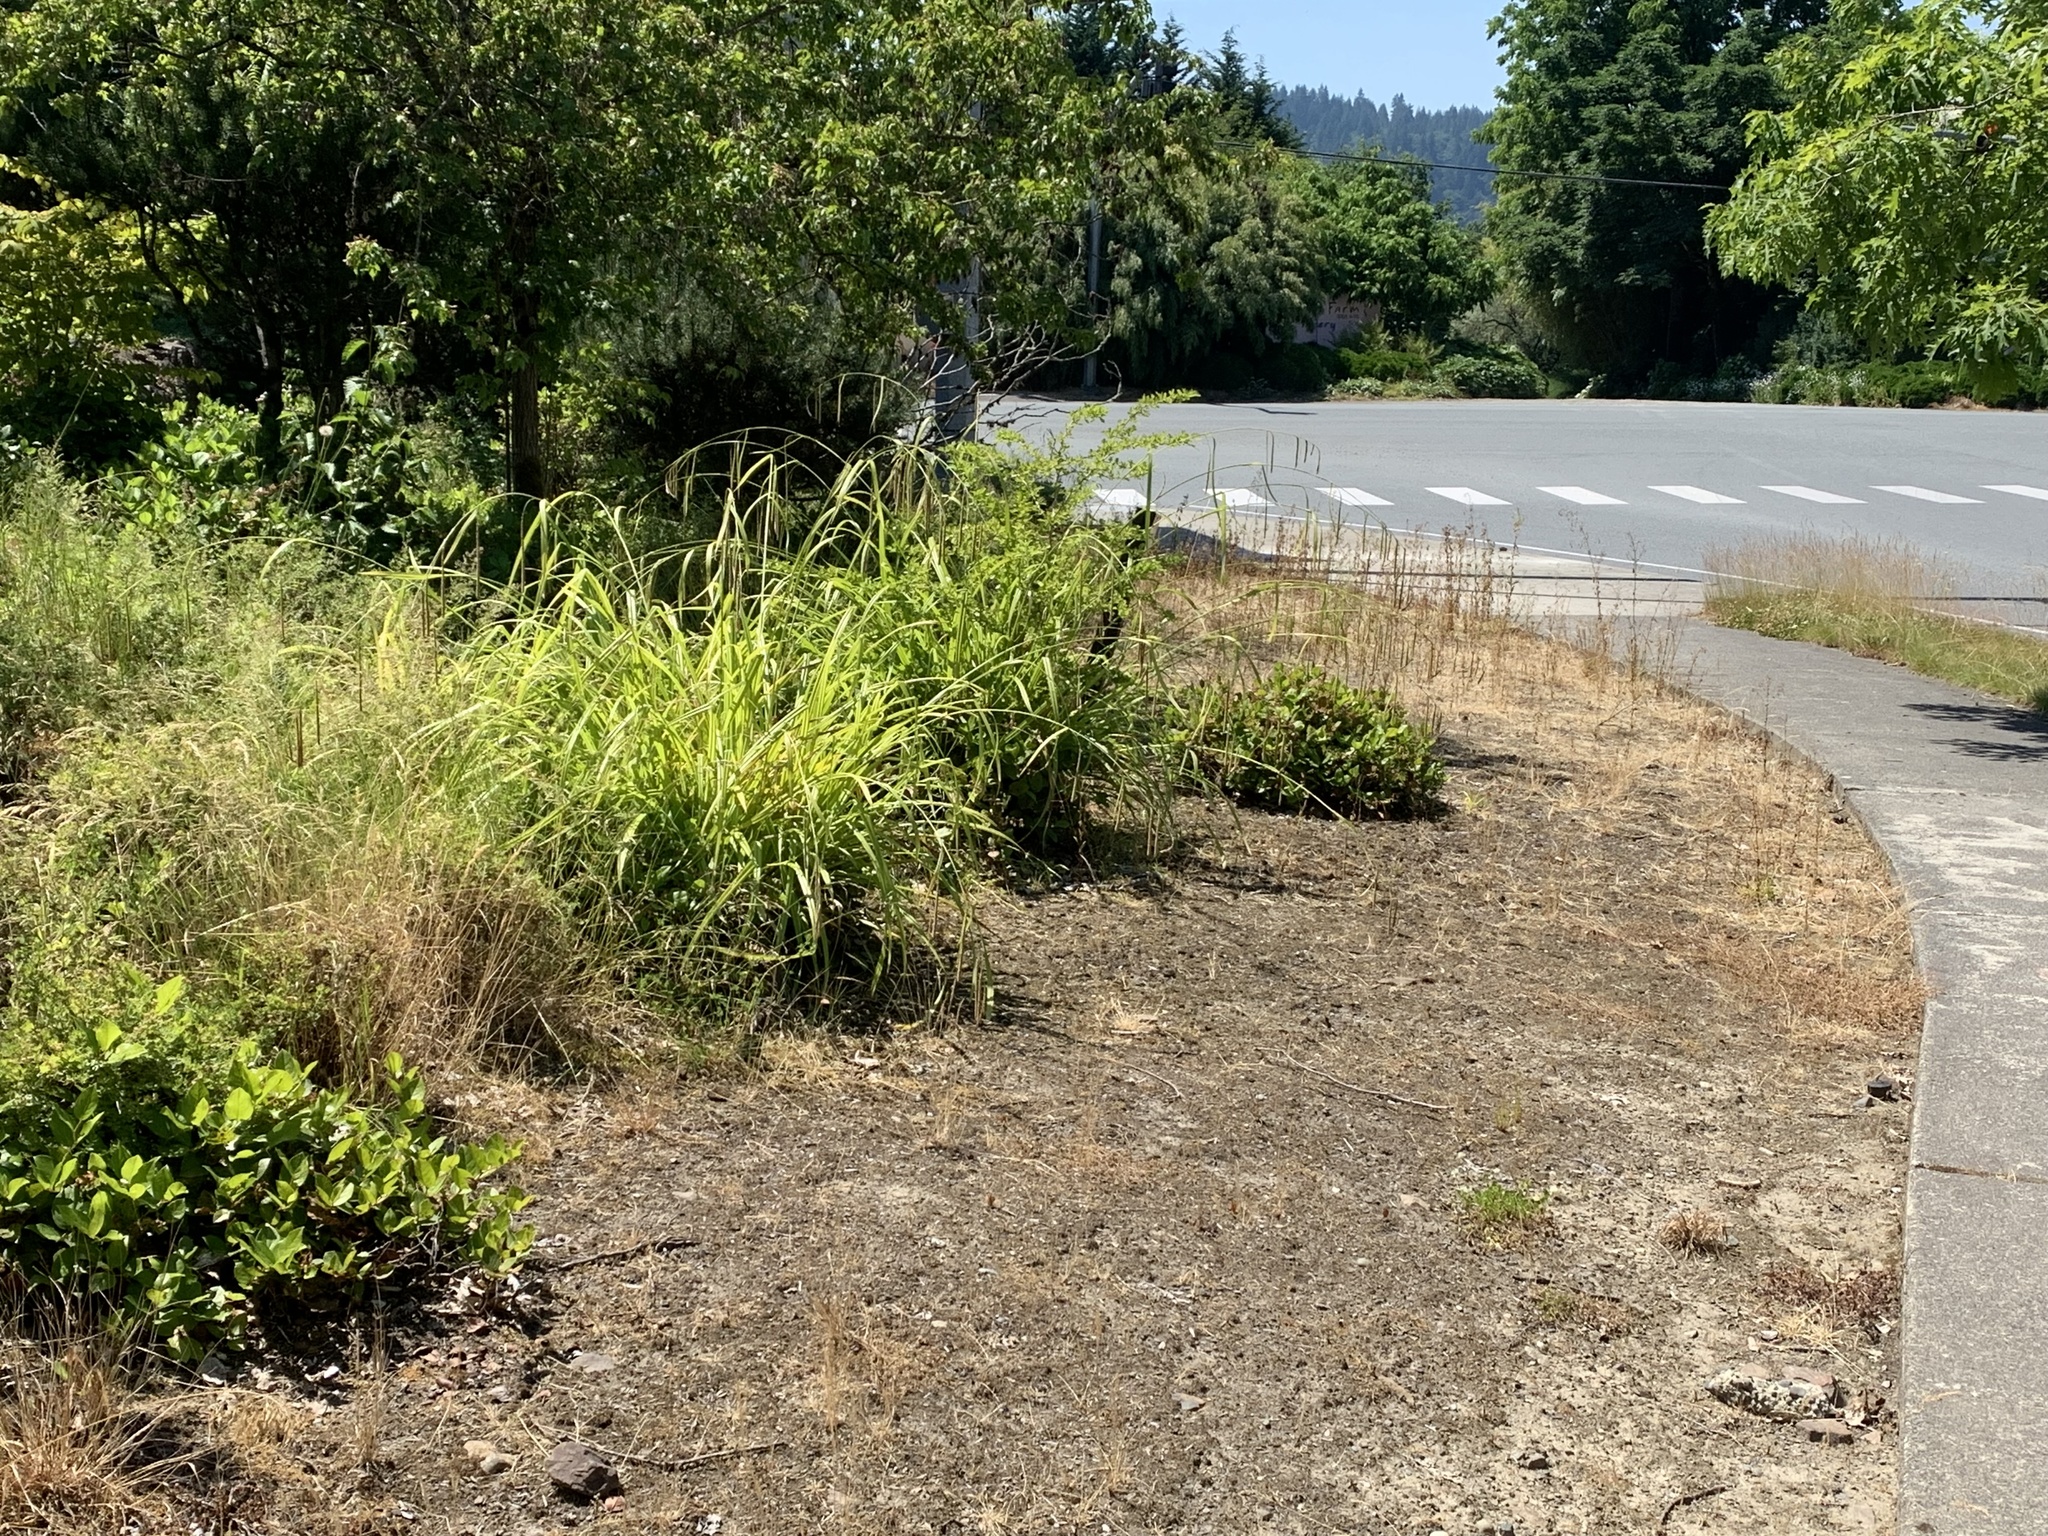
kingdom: Plantae
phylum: Tracheophyta
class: Liliopsida
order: Poales
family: Cyperaceae
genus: Carex
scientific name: Carex pendula
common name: Pendulous sedge
